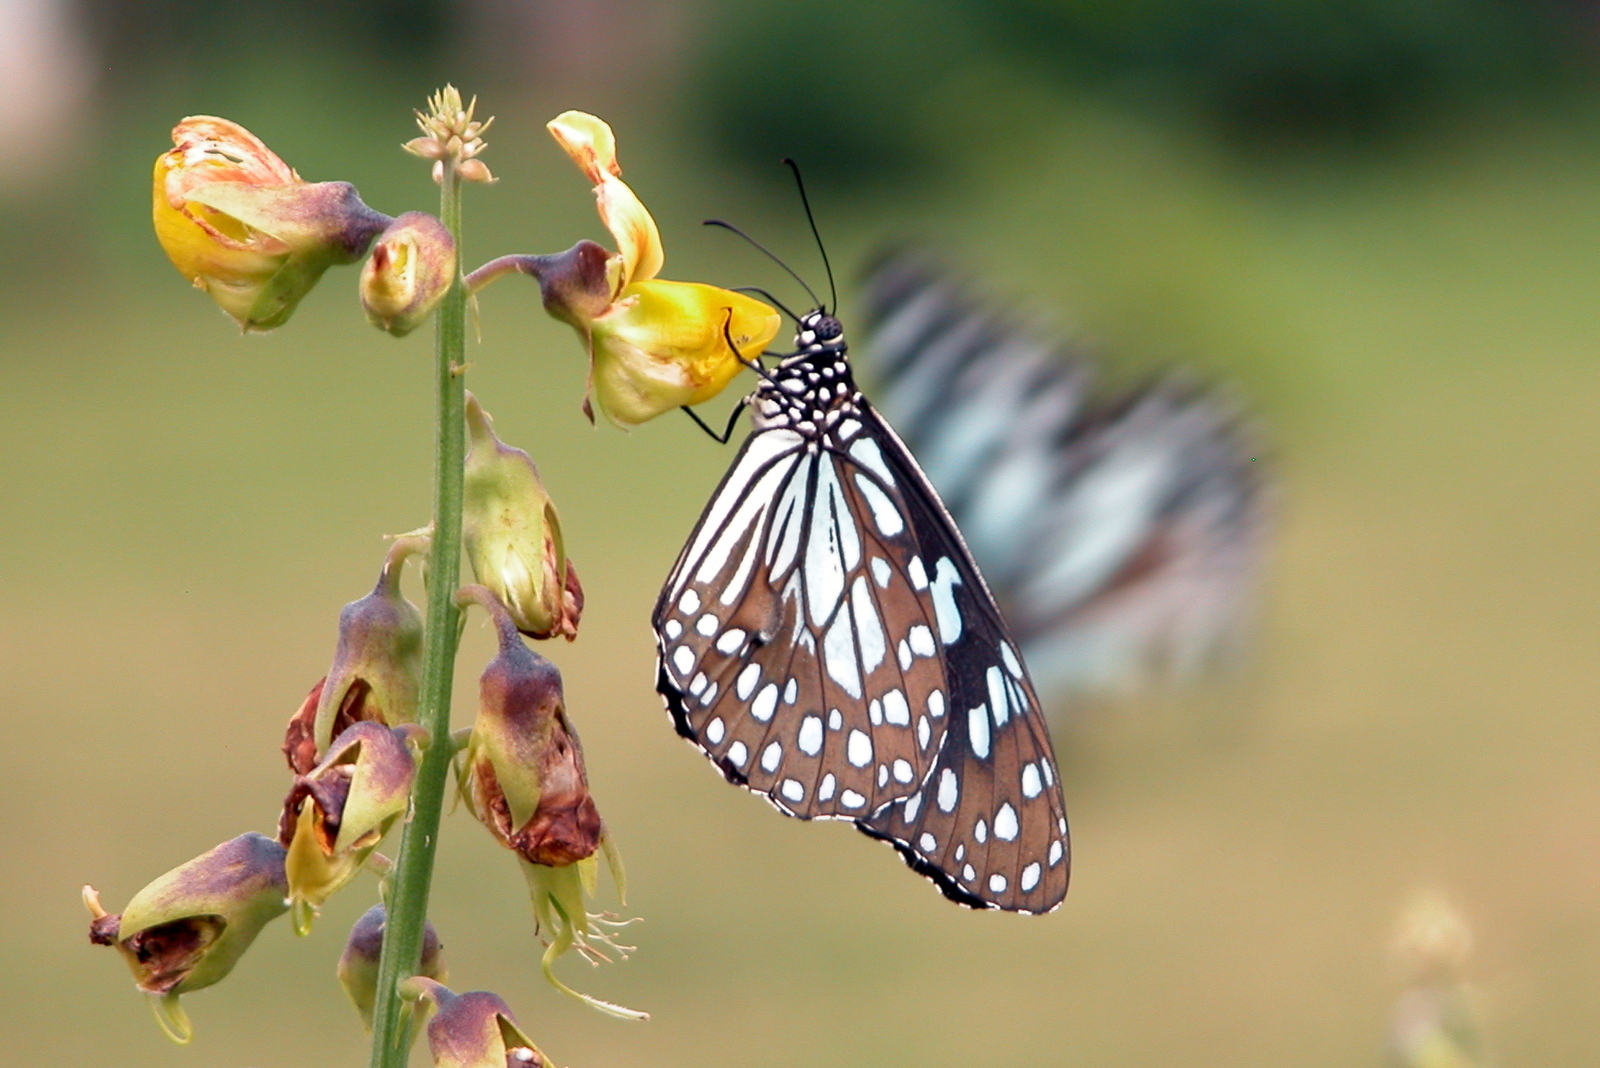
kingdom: Animalia
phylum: Arthropoda
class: Insecta
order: Lepidoptera
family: Nymphalidae
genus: Tirumala
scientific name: Tirumala limniace
